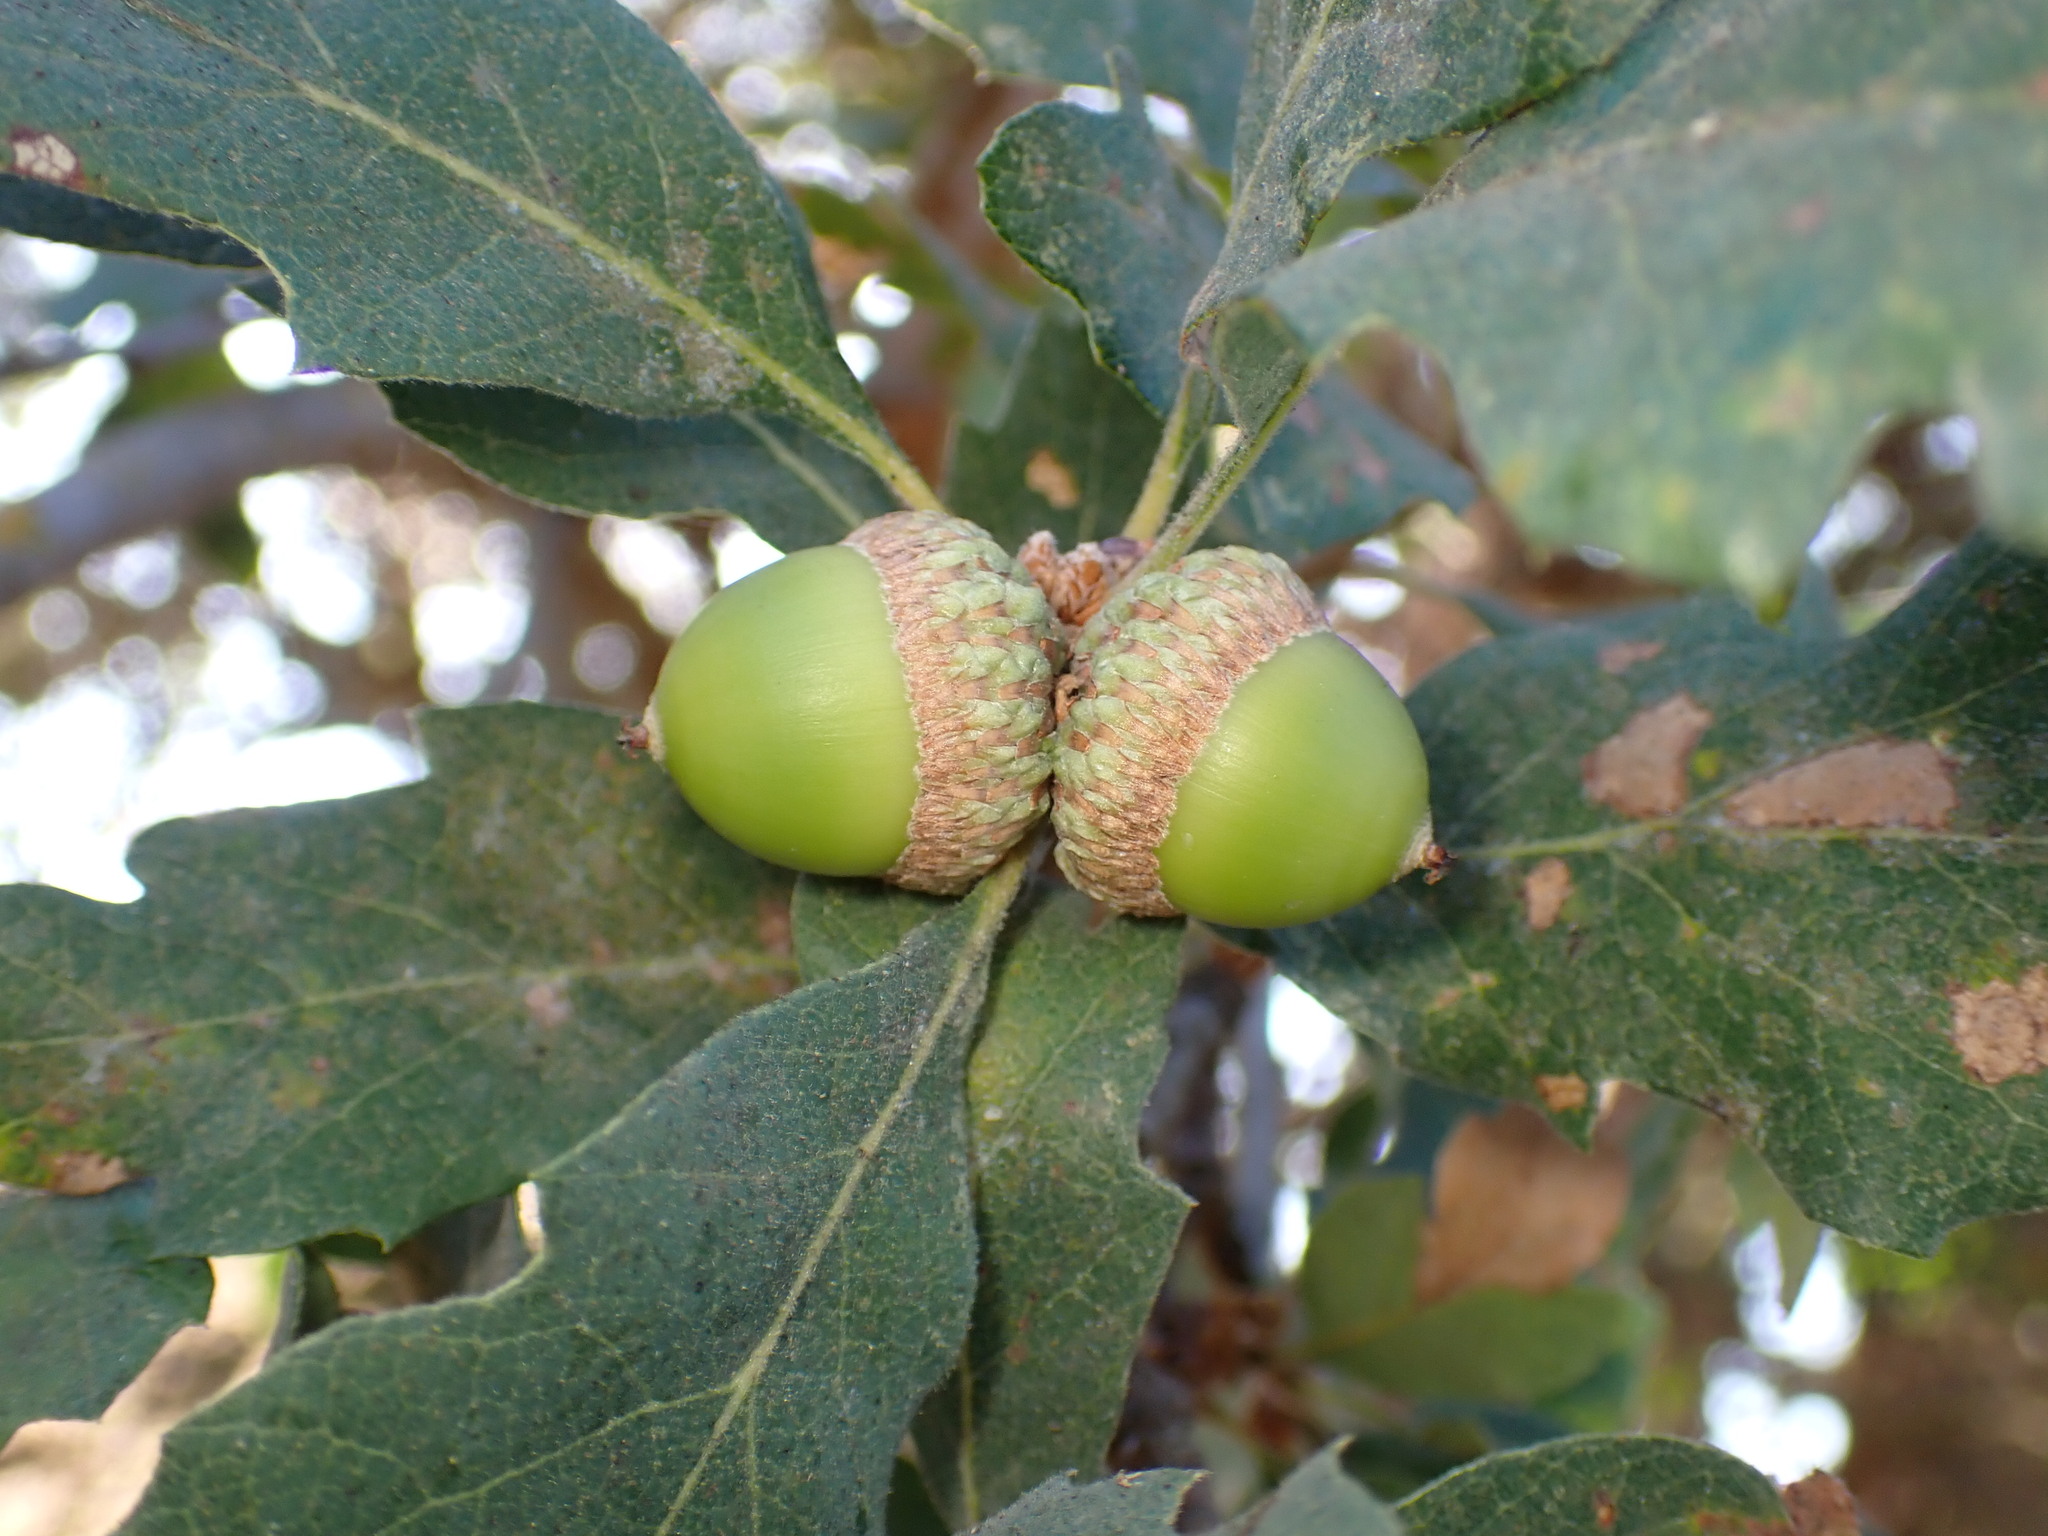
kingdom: Plantae
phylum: Tracheophyta
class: Magnoliopsida
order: Fagales
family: Fagaceae
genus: Quercus
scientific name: Quercus douglasii
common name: Blue oak
